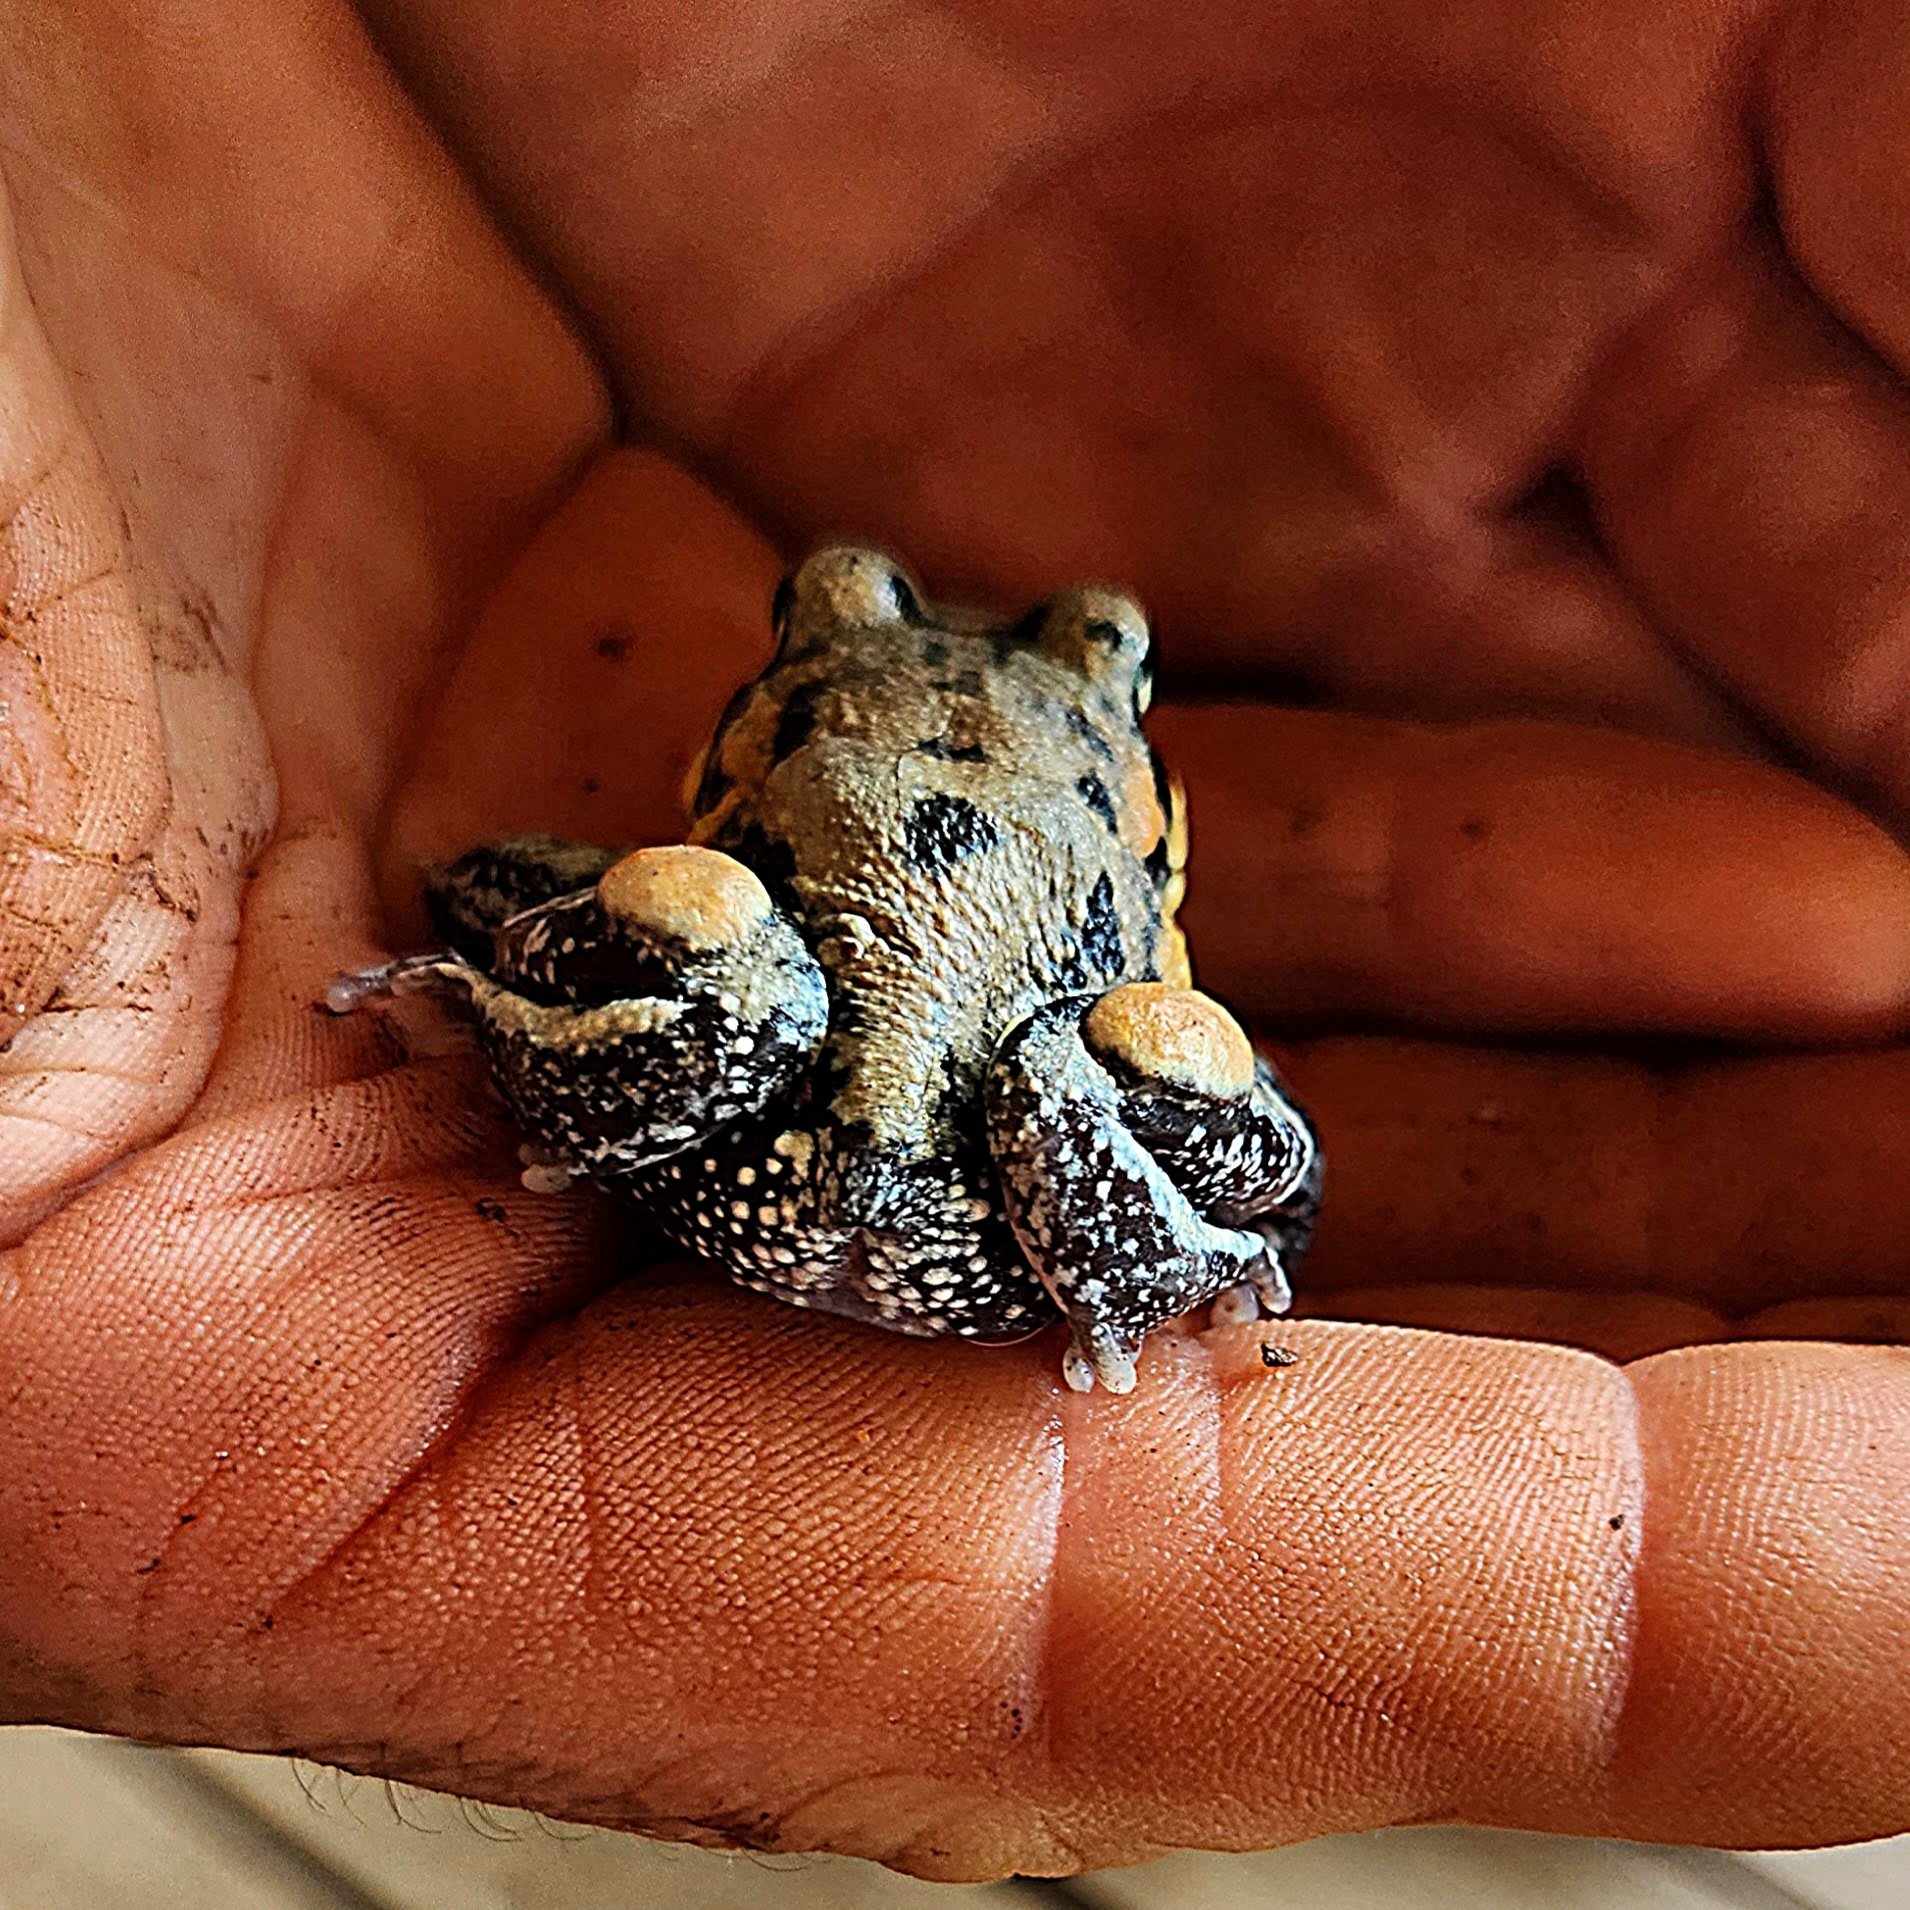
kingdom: Animalia
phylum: Chordata
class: Amphibia
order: Anura
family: Limnodynastidae
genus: Limnodynastes
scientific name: Limnodynastes interioris
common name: Giant banjo frog
